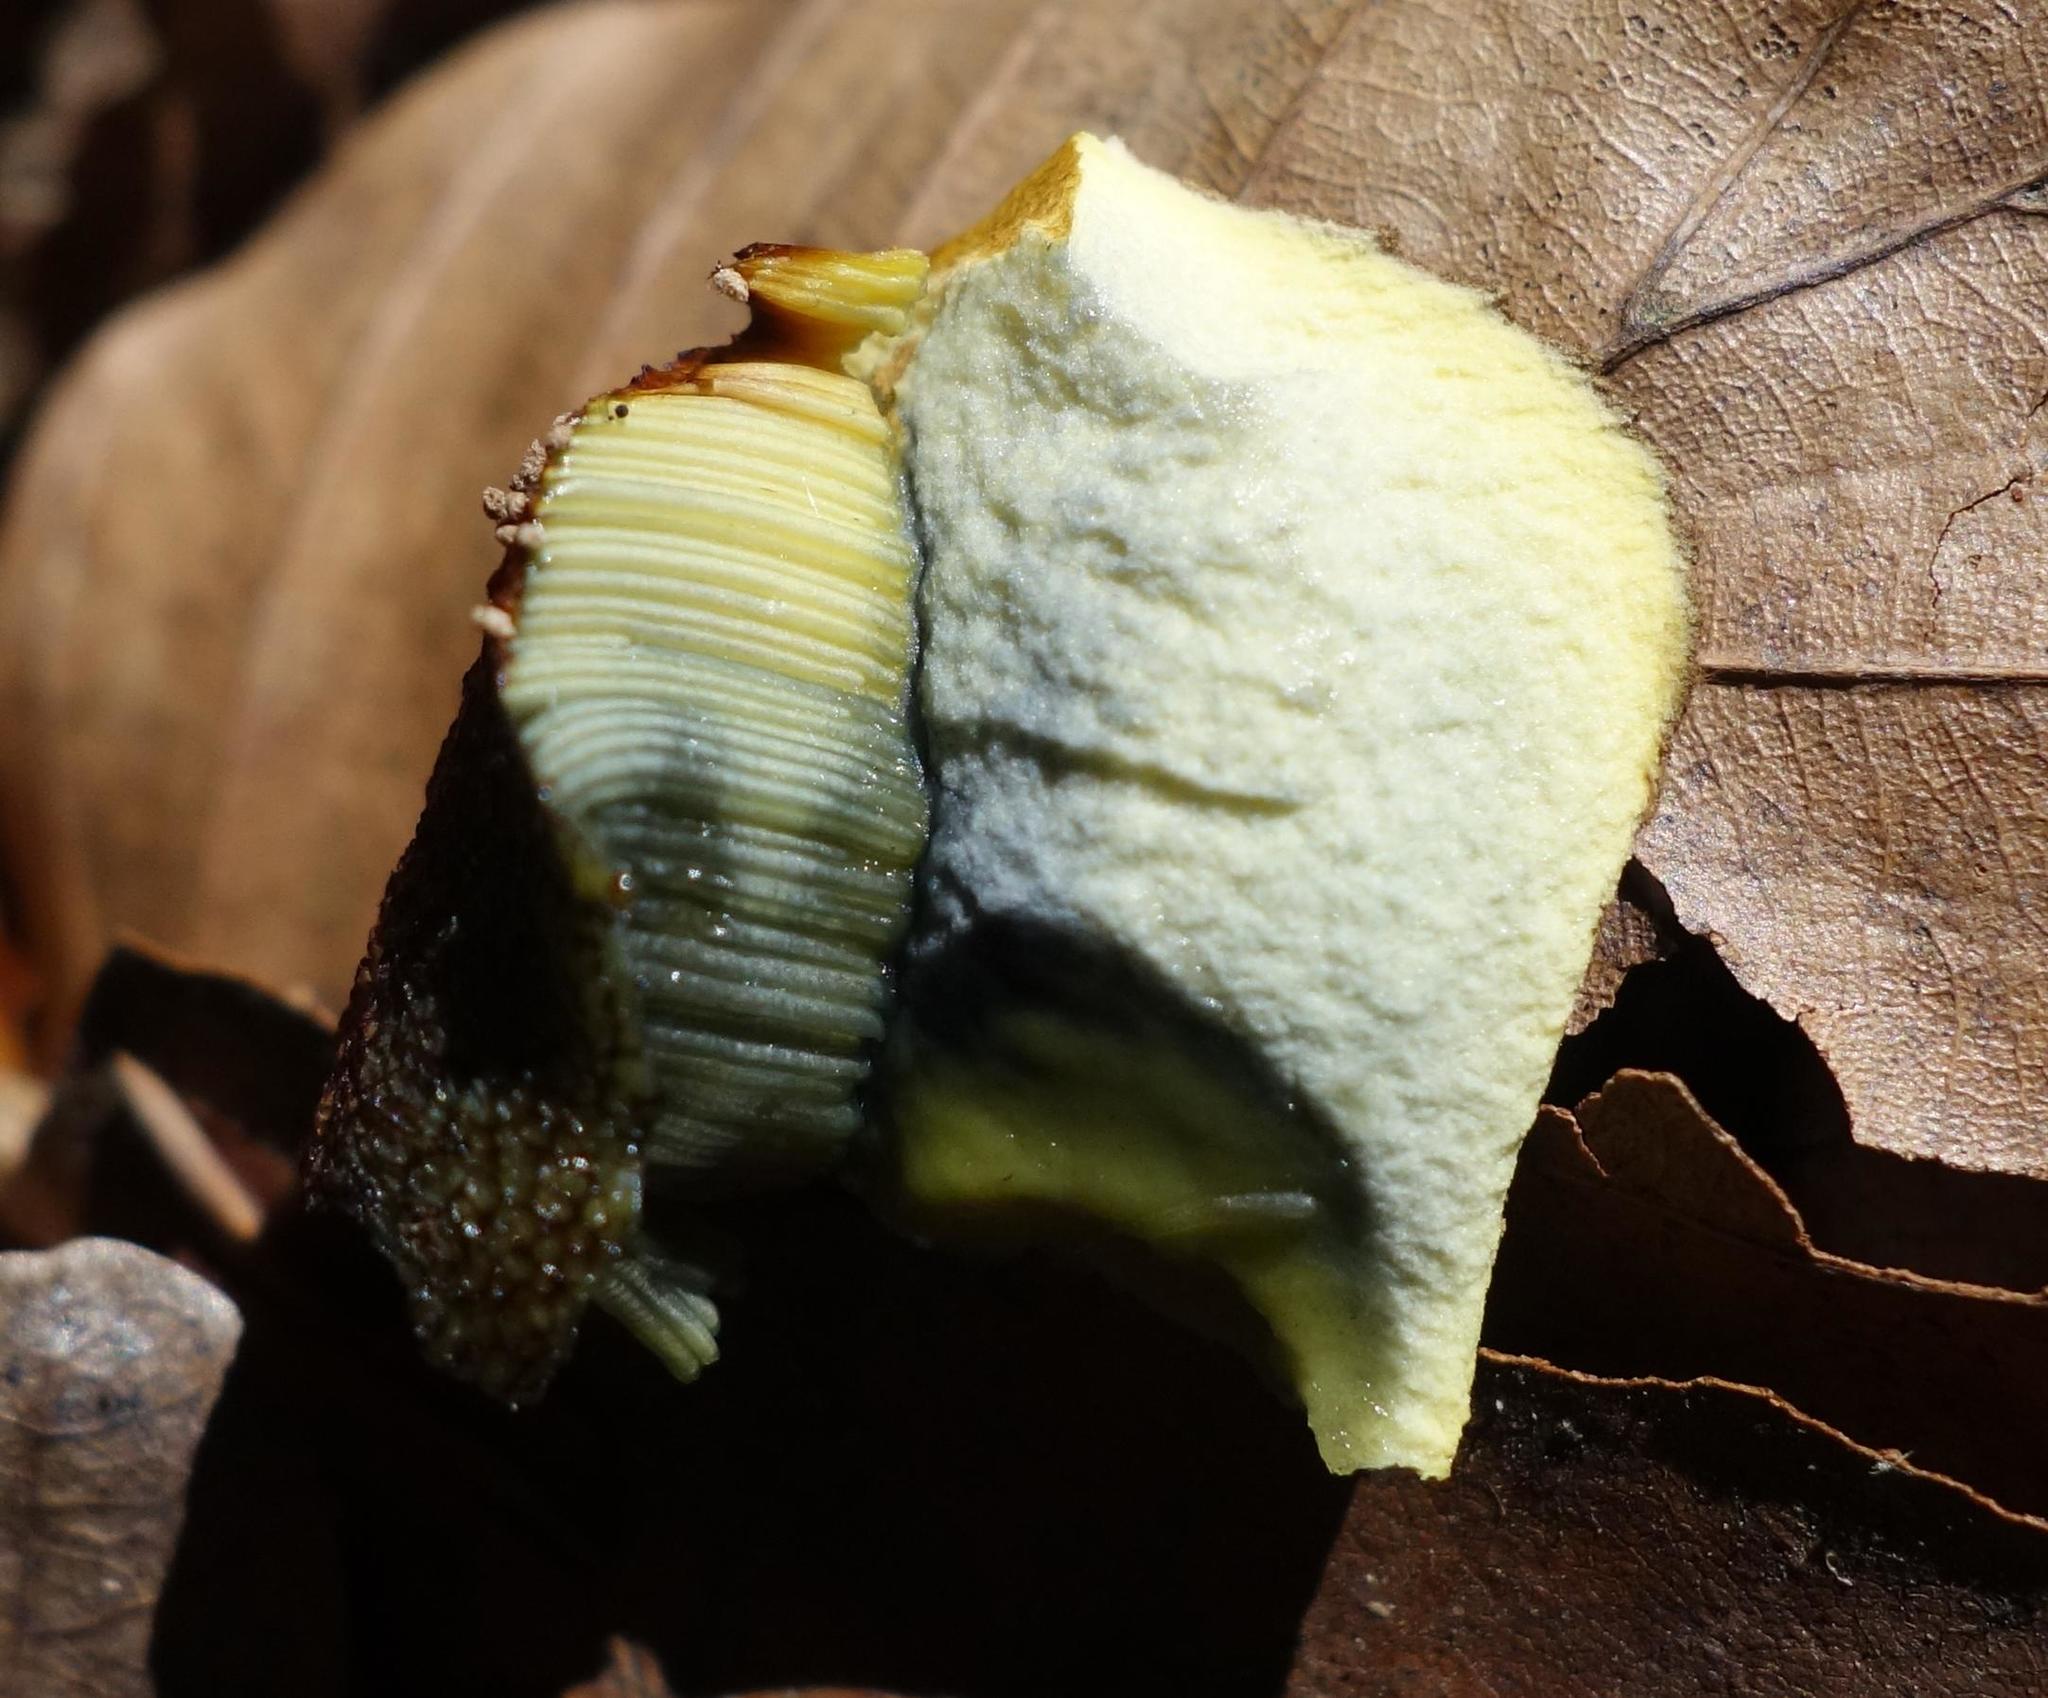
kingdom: Fungi
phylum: Basidiomycota
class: Agaricomycetes
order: Boletales
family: Boletaceae
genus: Neoboletus
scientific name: Neoboletus luridiformis
